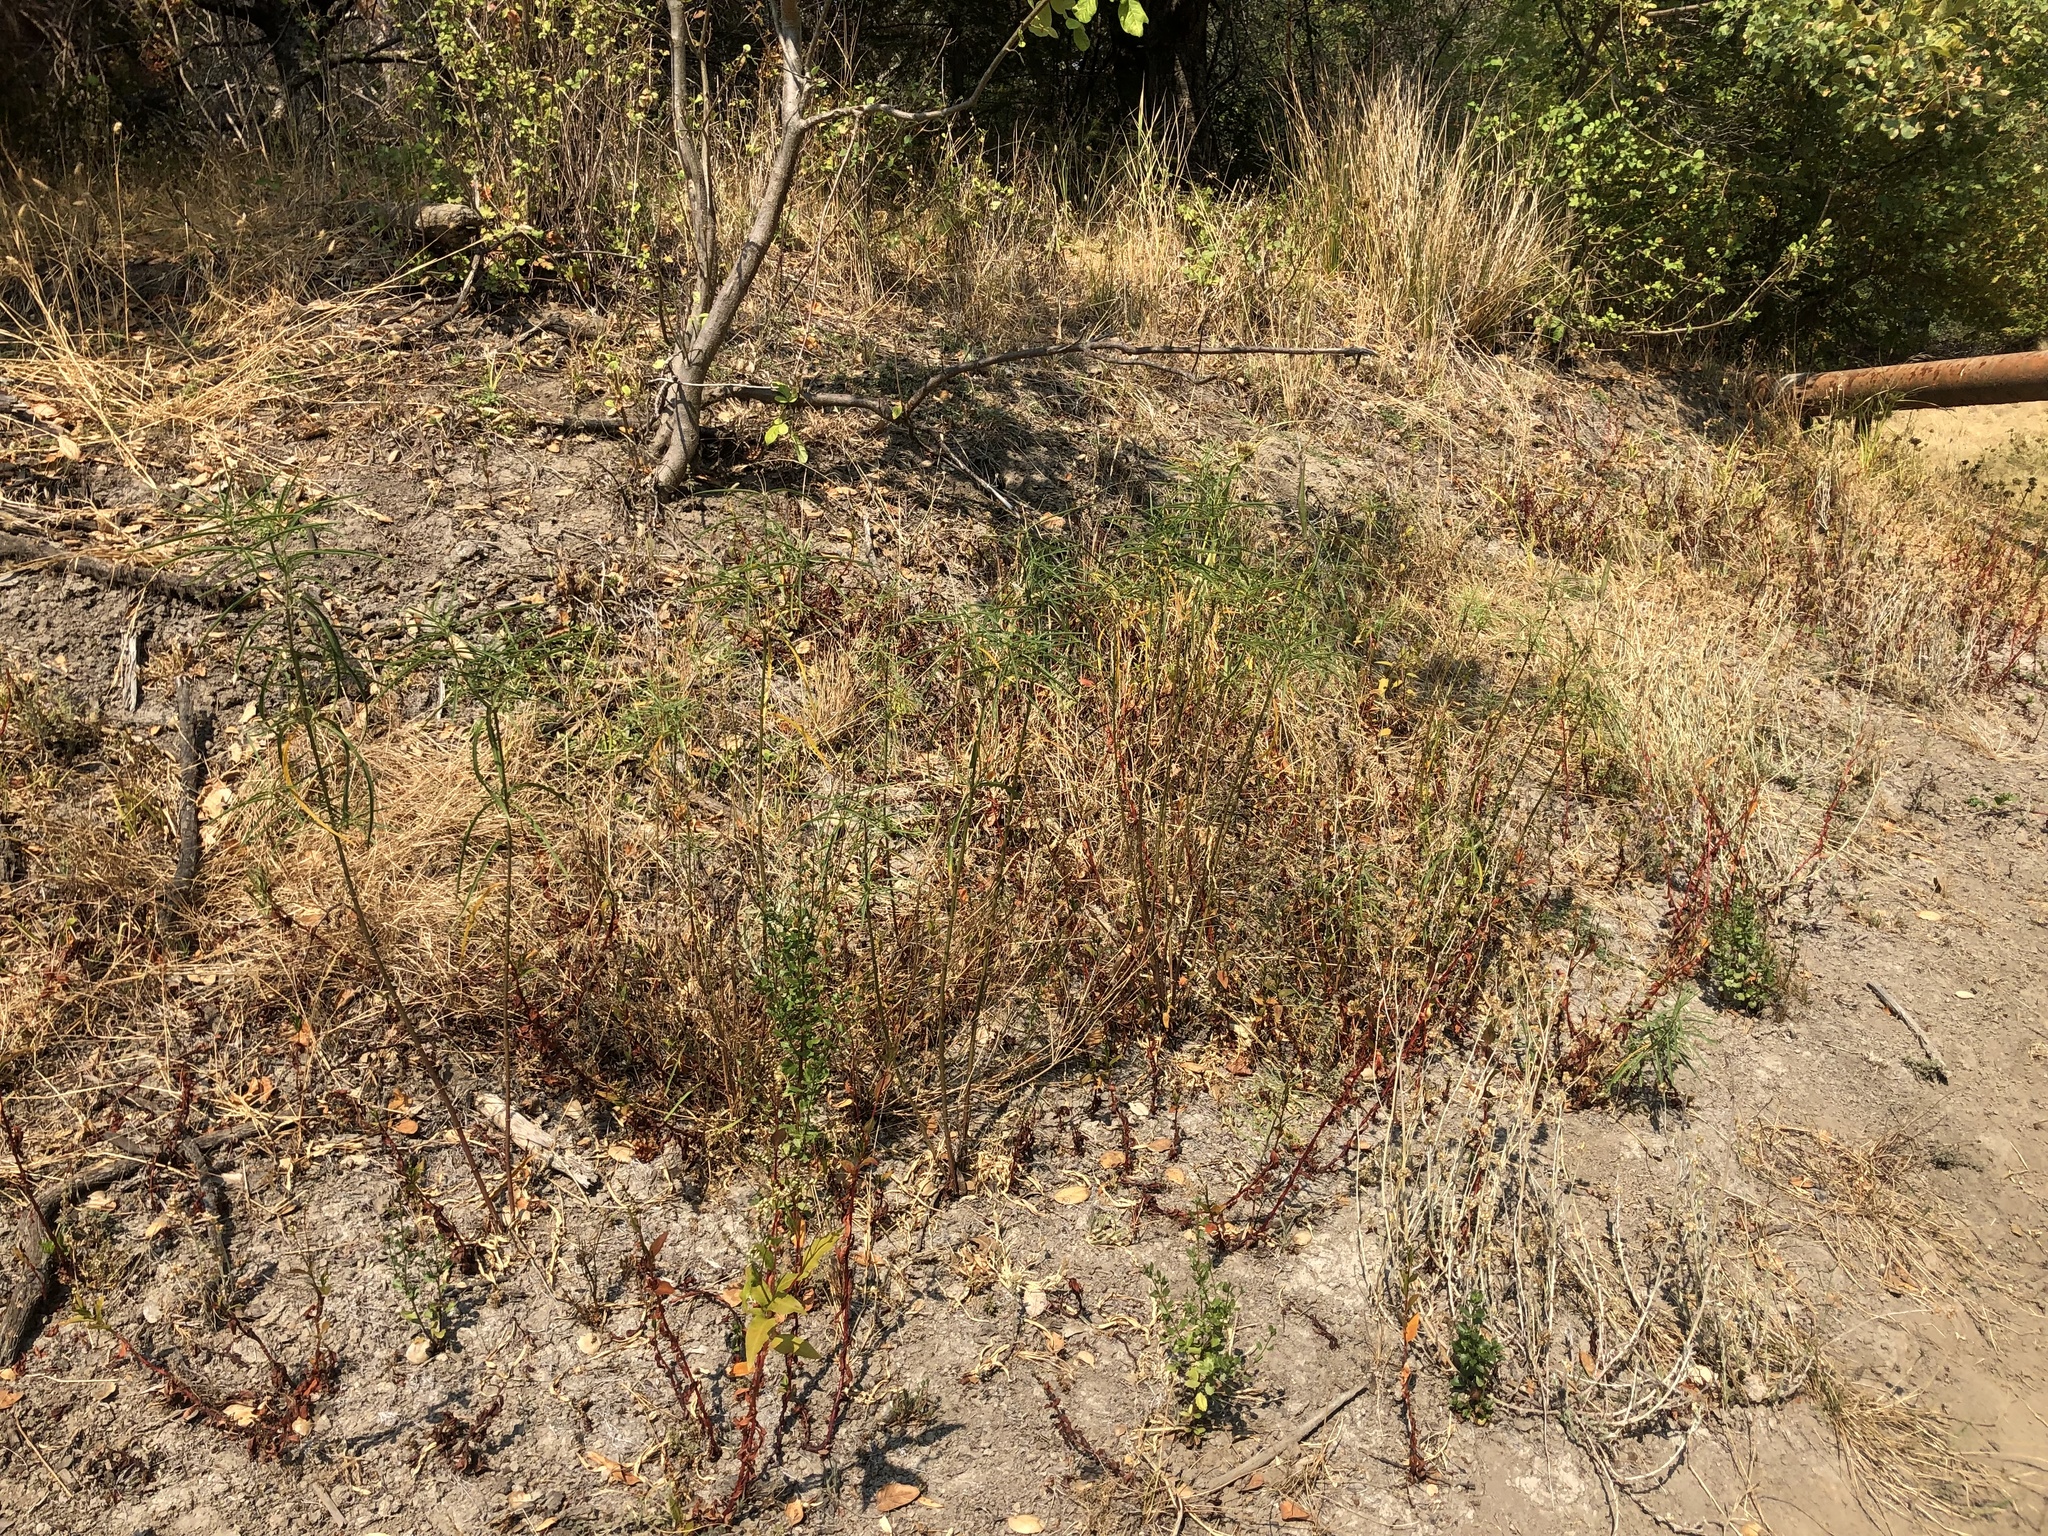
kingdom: Plantae
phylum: Tracheophyta
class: Magnoliopsida
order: Gentianales
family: Apocynaceae
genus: Asclepias
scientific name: Asclepias fascicularis
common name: Mexican milkweed
